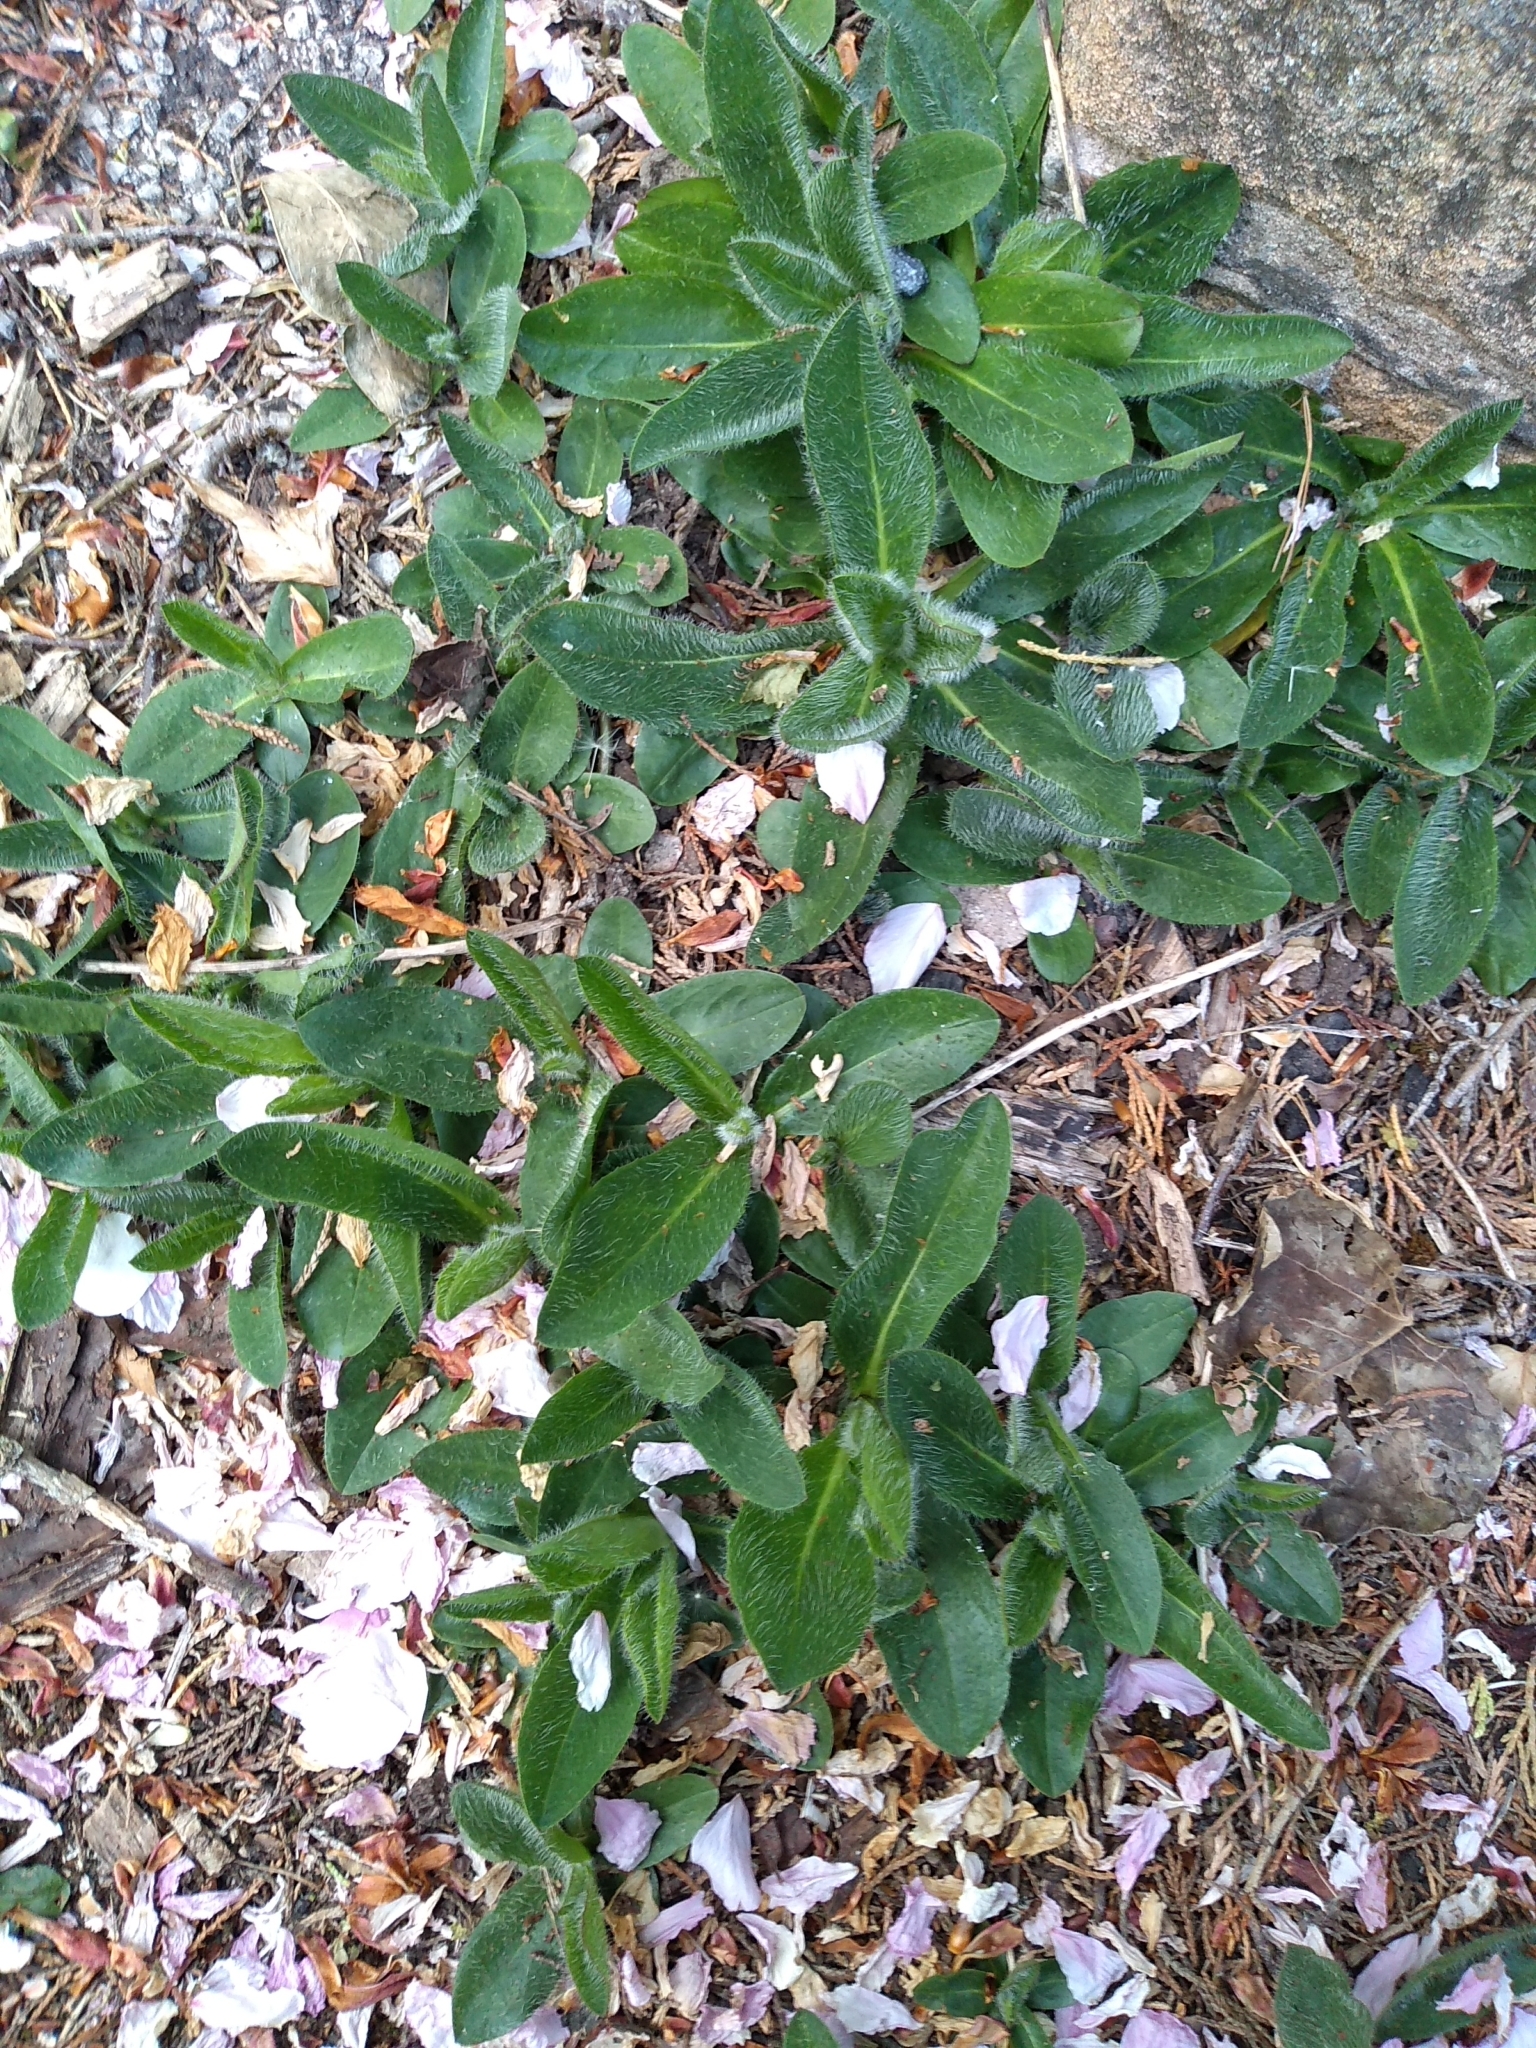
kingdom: Plantae
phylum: Tracheophyta
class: Magnoliopsida
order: Asterales
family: Asteraceae
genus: Pilosella
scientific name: Pilosella aurantiaca
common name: Fox-and-cubs
